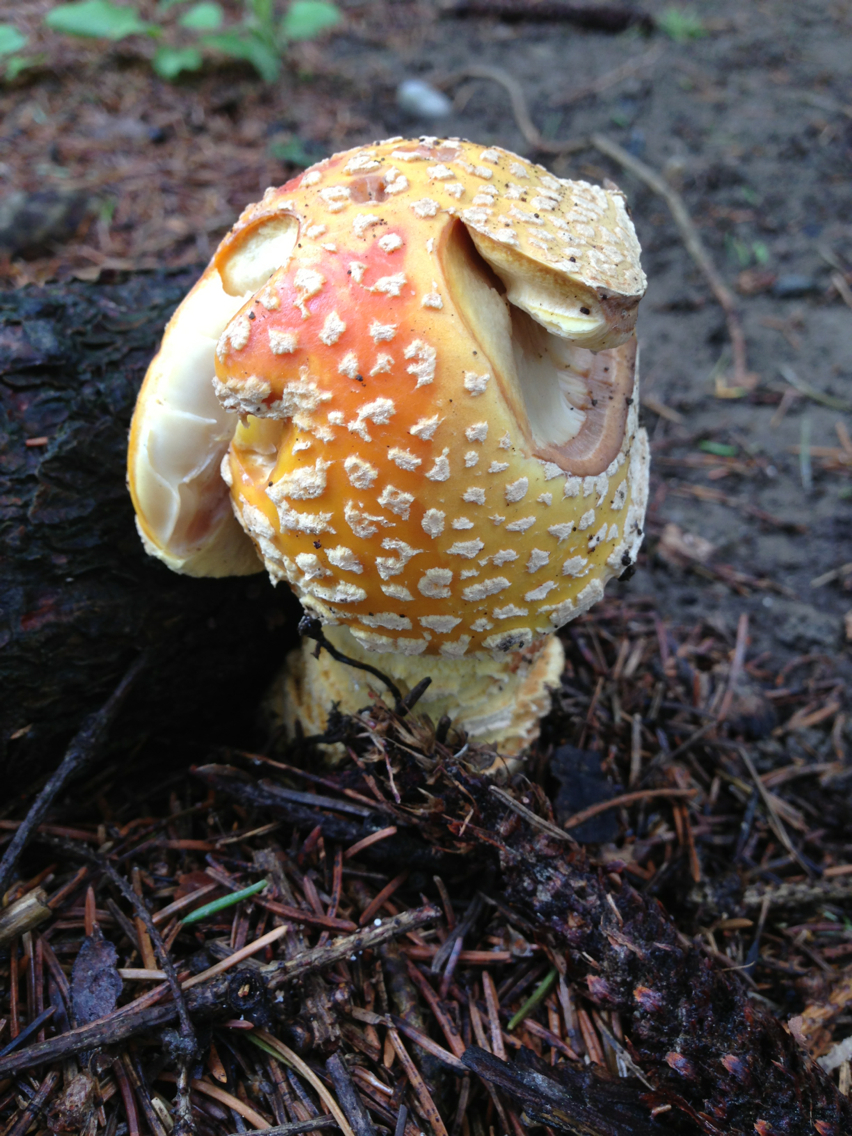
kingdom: Fungi
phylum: Basidiomycota
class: Agaricomycetes
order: Agaricales
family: Amanitaceae
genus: Amanita
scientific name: Amanita muscaria
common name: Fly agaric
